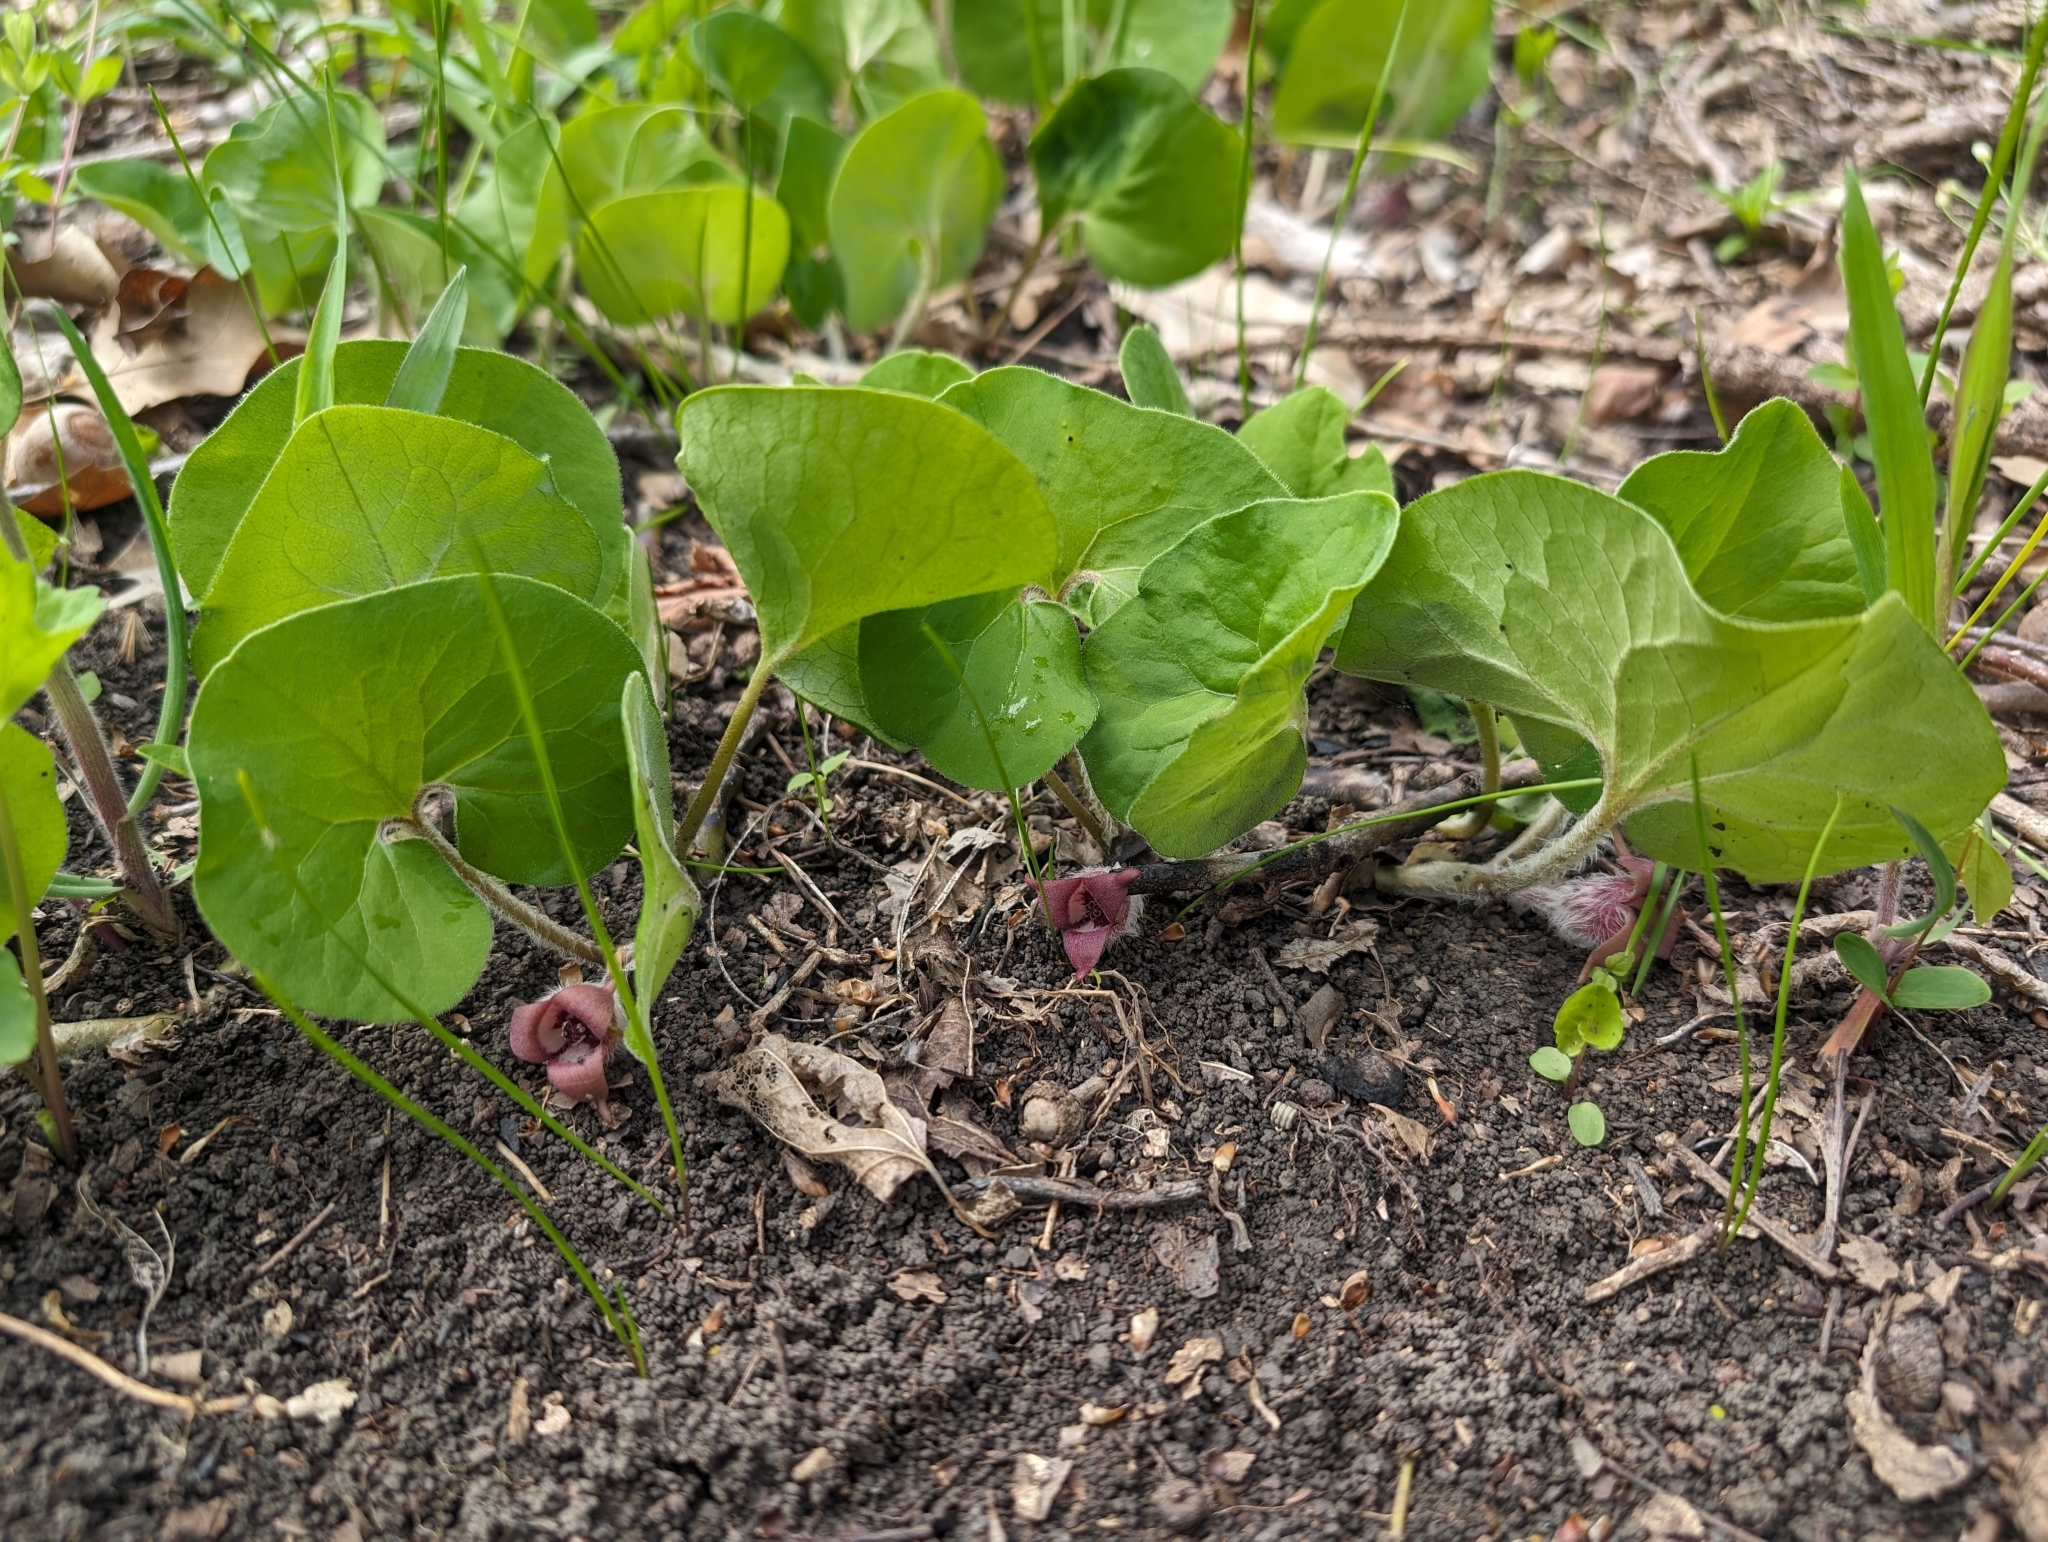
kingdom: Plantae
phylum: Tracheophyta
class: Magnoliopsida
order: Piperales
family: Aristolochiaceae
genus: Asarum
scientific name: Asarum canadense
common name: Wild ginger
